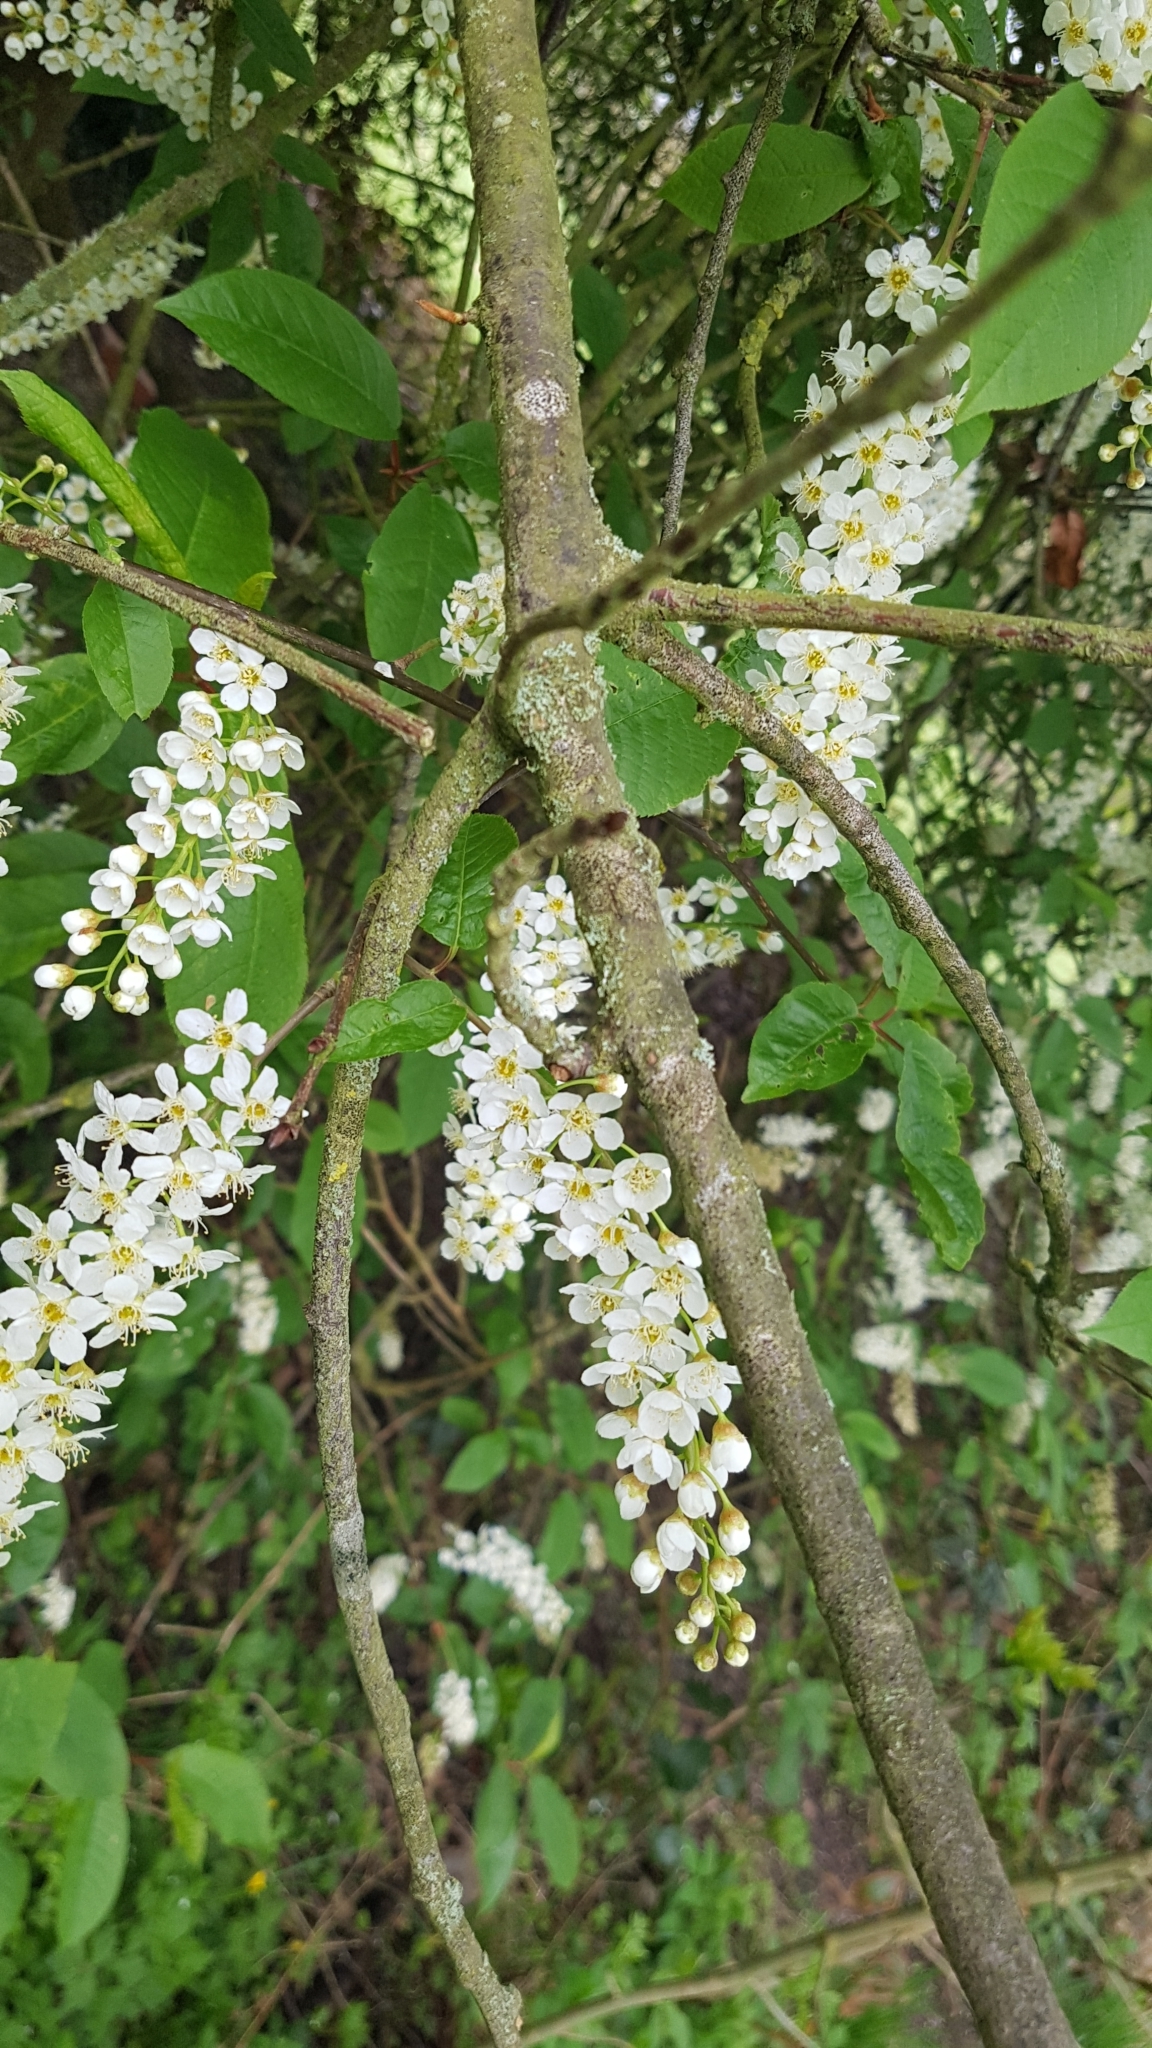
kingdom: Plantae
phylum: Tracheophyta
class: Magnoliopsida
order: Rosales
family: Rosaceae
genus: Prunus
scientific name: Prunus padus
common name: Bird cherry
